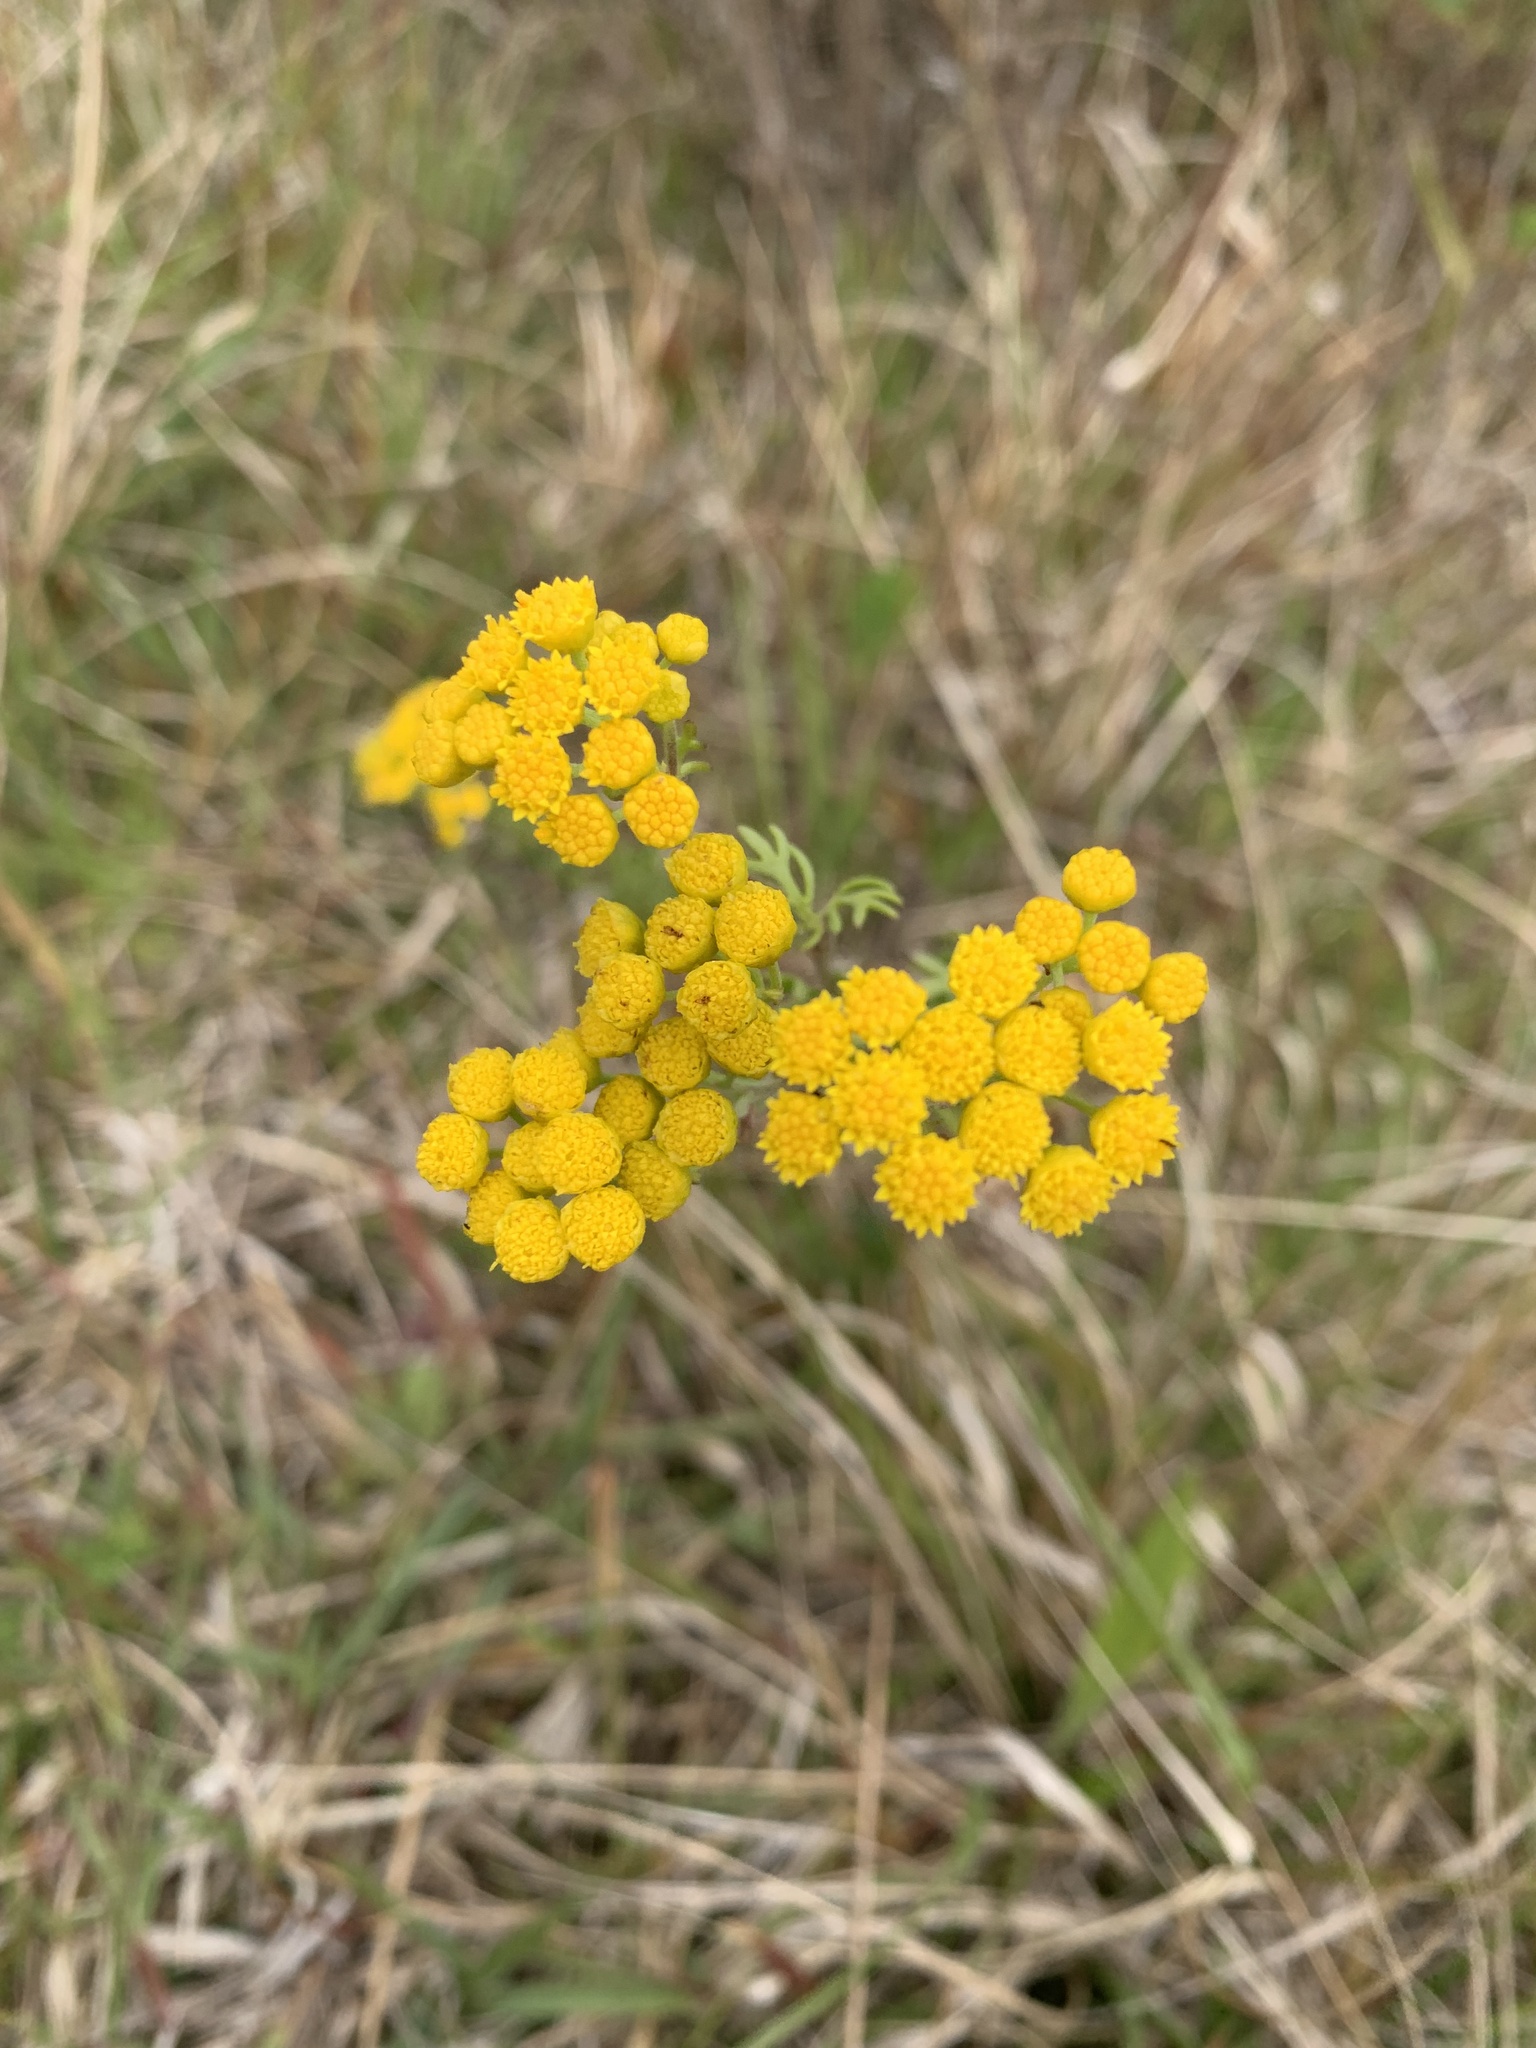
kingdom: Plantae
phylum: Tracheophyta
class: Magnoliopsida
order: Asterales
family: Asteraceae
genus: Hippia
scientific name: Hippia frutescens
